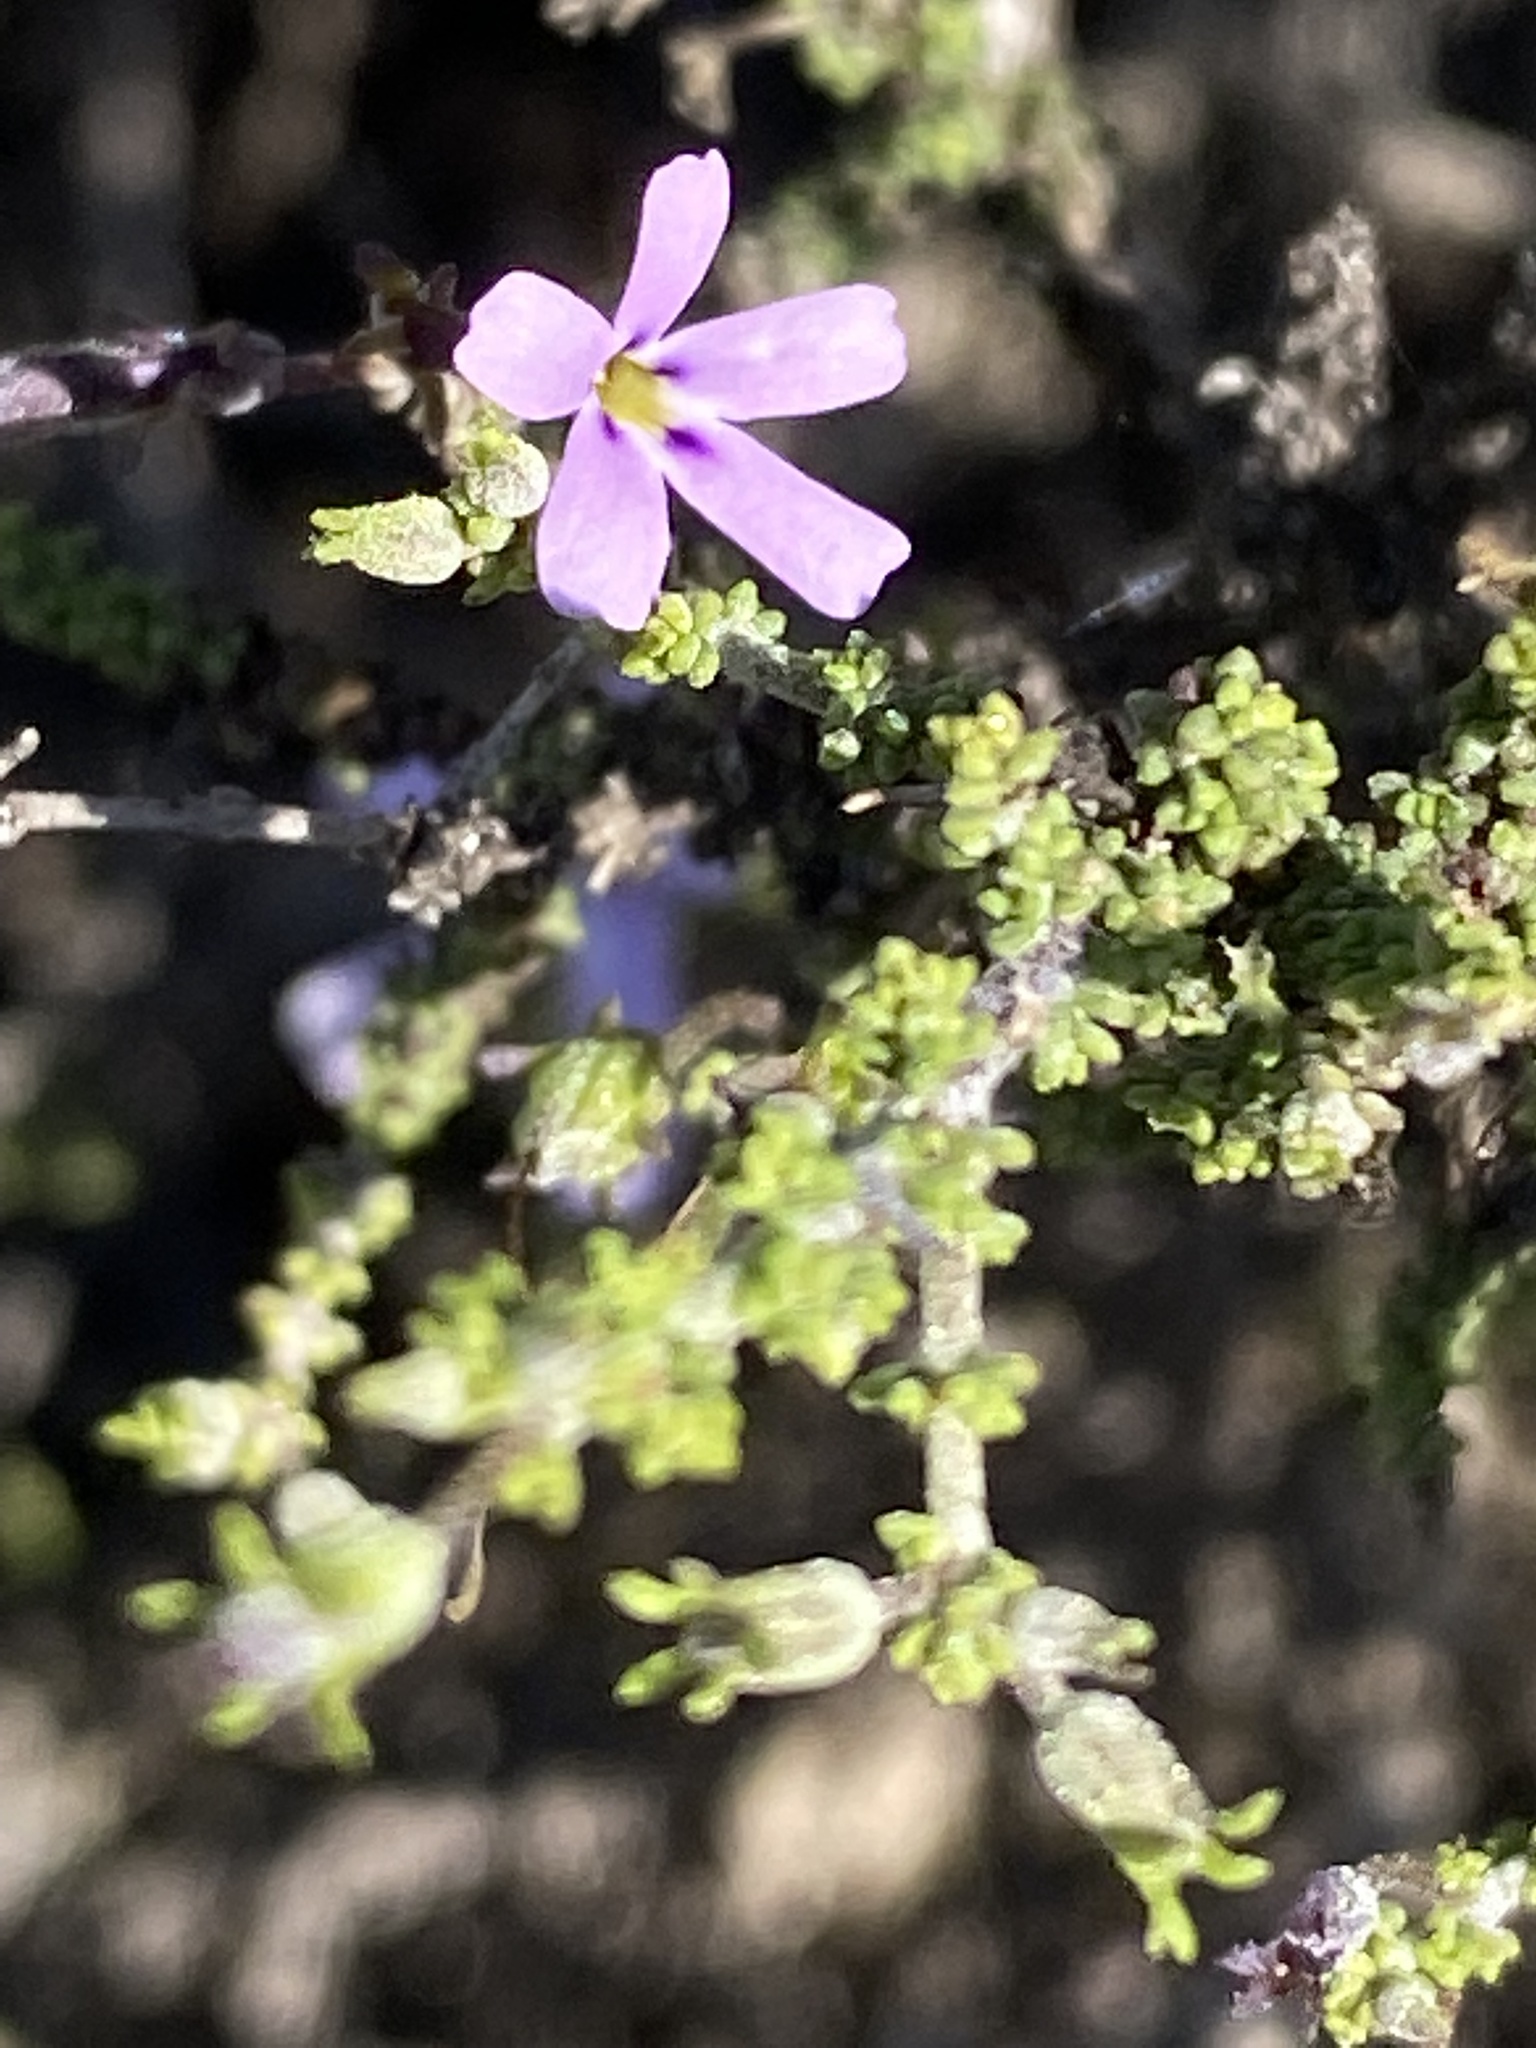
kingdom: Plantae
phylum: Tracheophyta
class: Magnoliopsida
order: Lamiales
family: Scrophulariaceae
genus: Jamesbrittenia
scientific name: Jamesbrittenia calciphila
